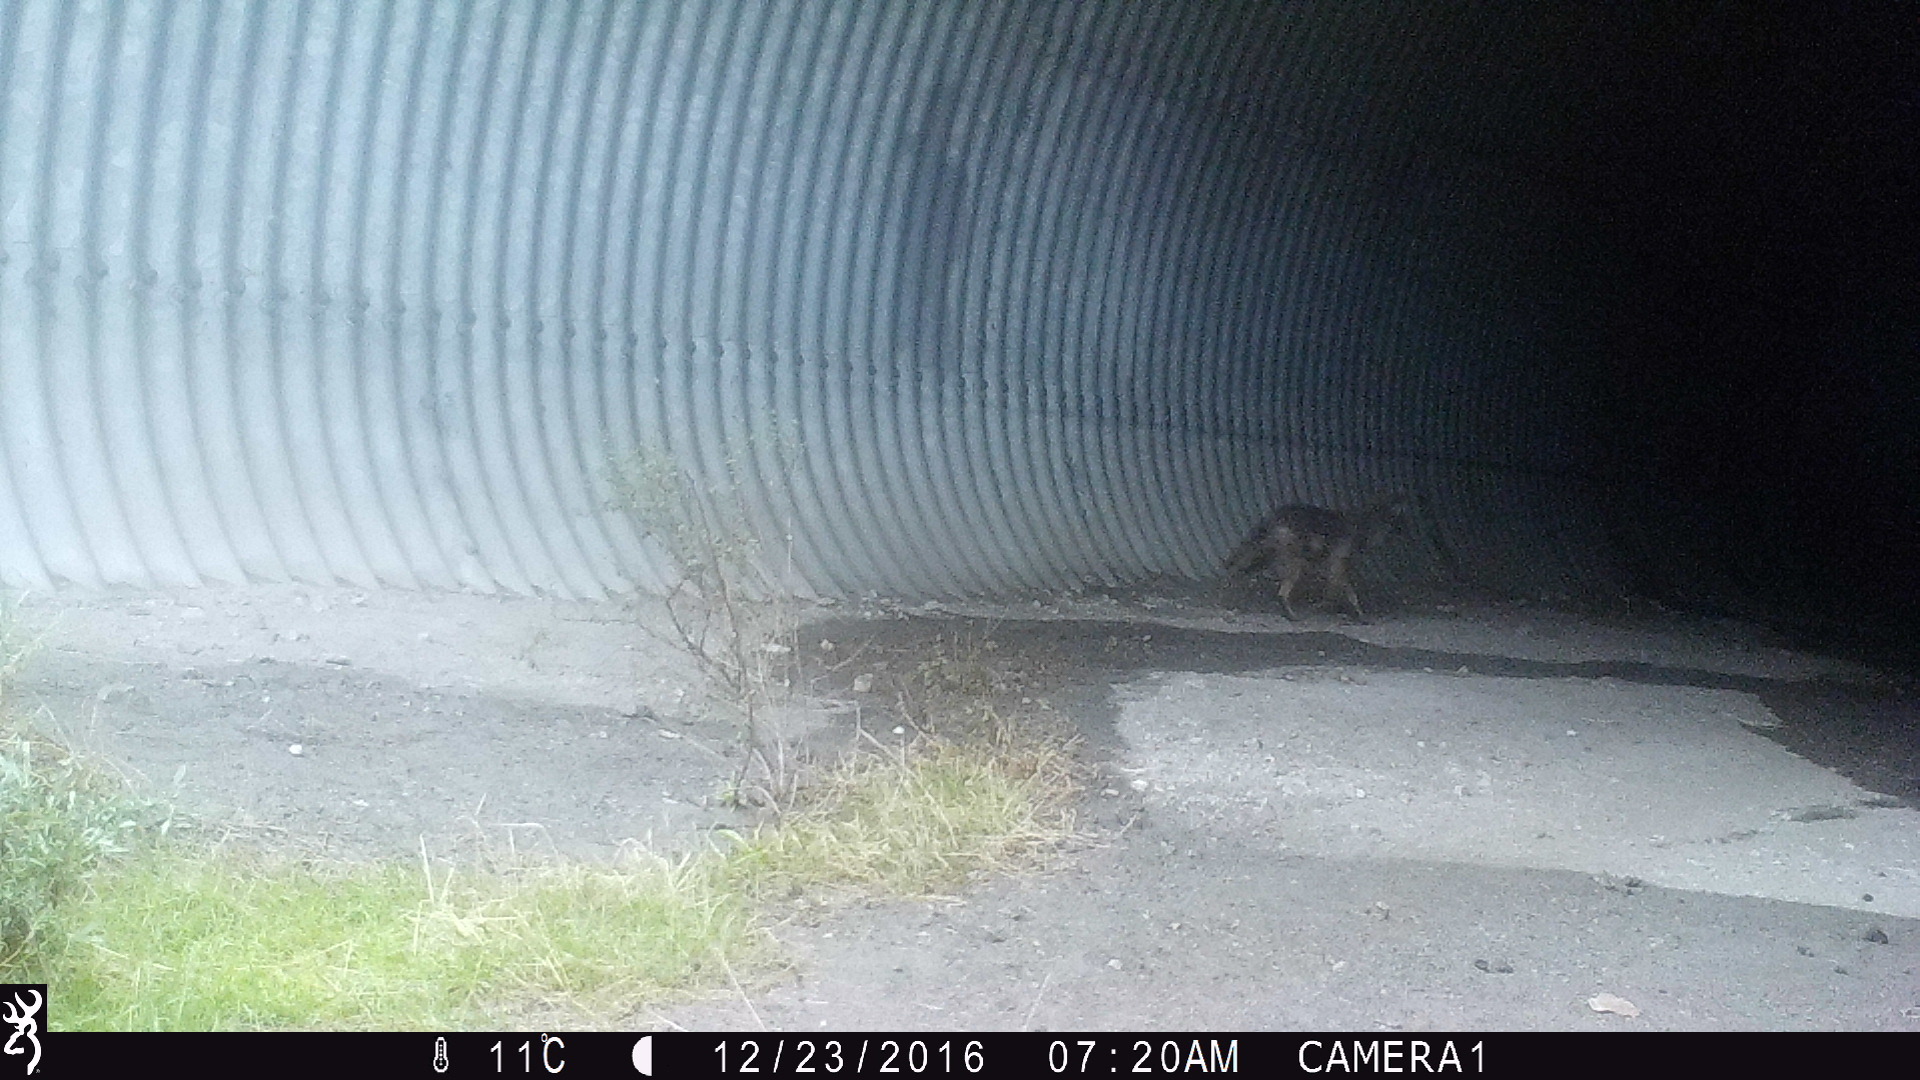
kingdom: Animalia
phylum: Chordata
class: Mammalia
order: Carnivora
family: Canidae
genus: Canis
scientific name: Canis latrans
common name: Coyote
